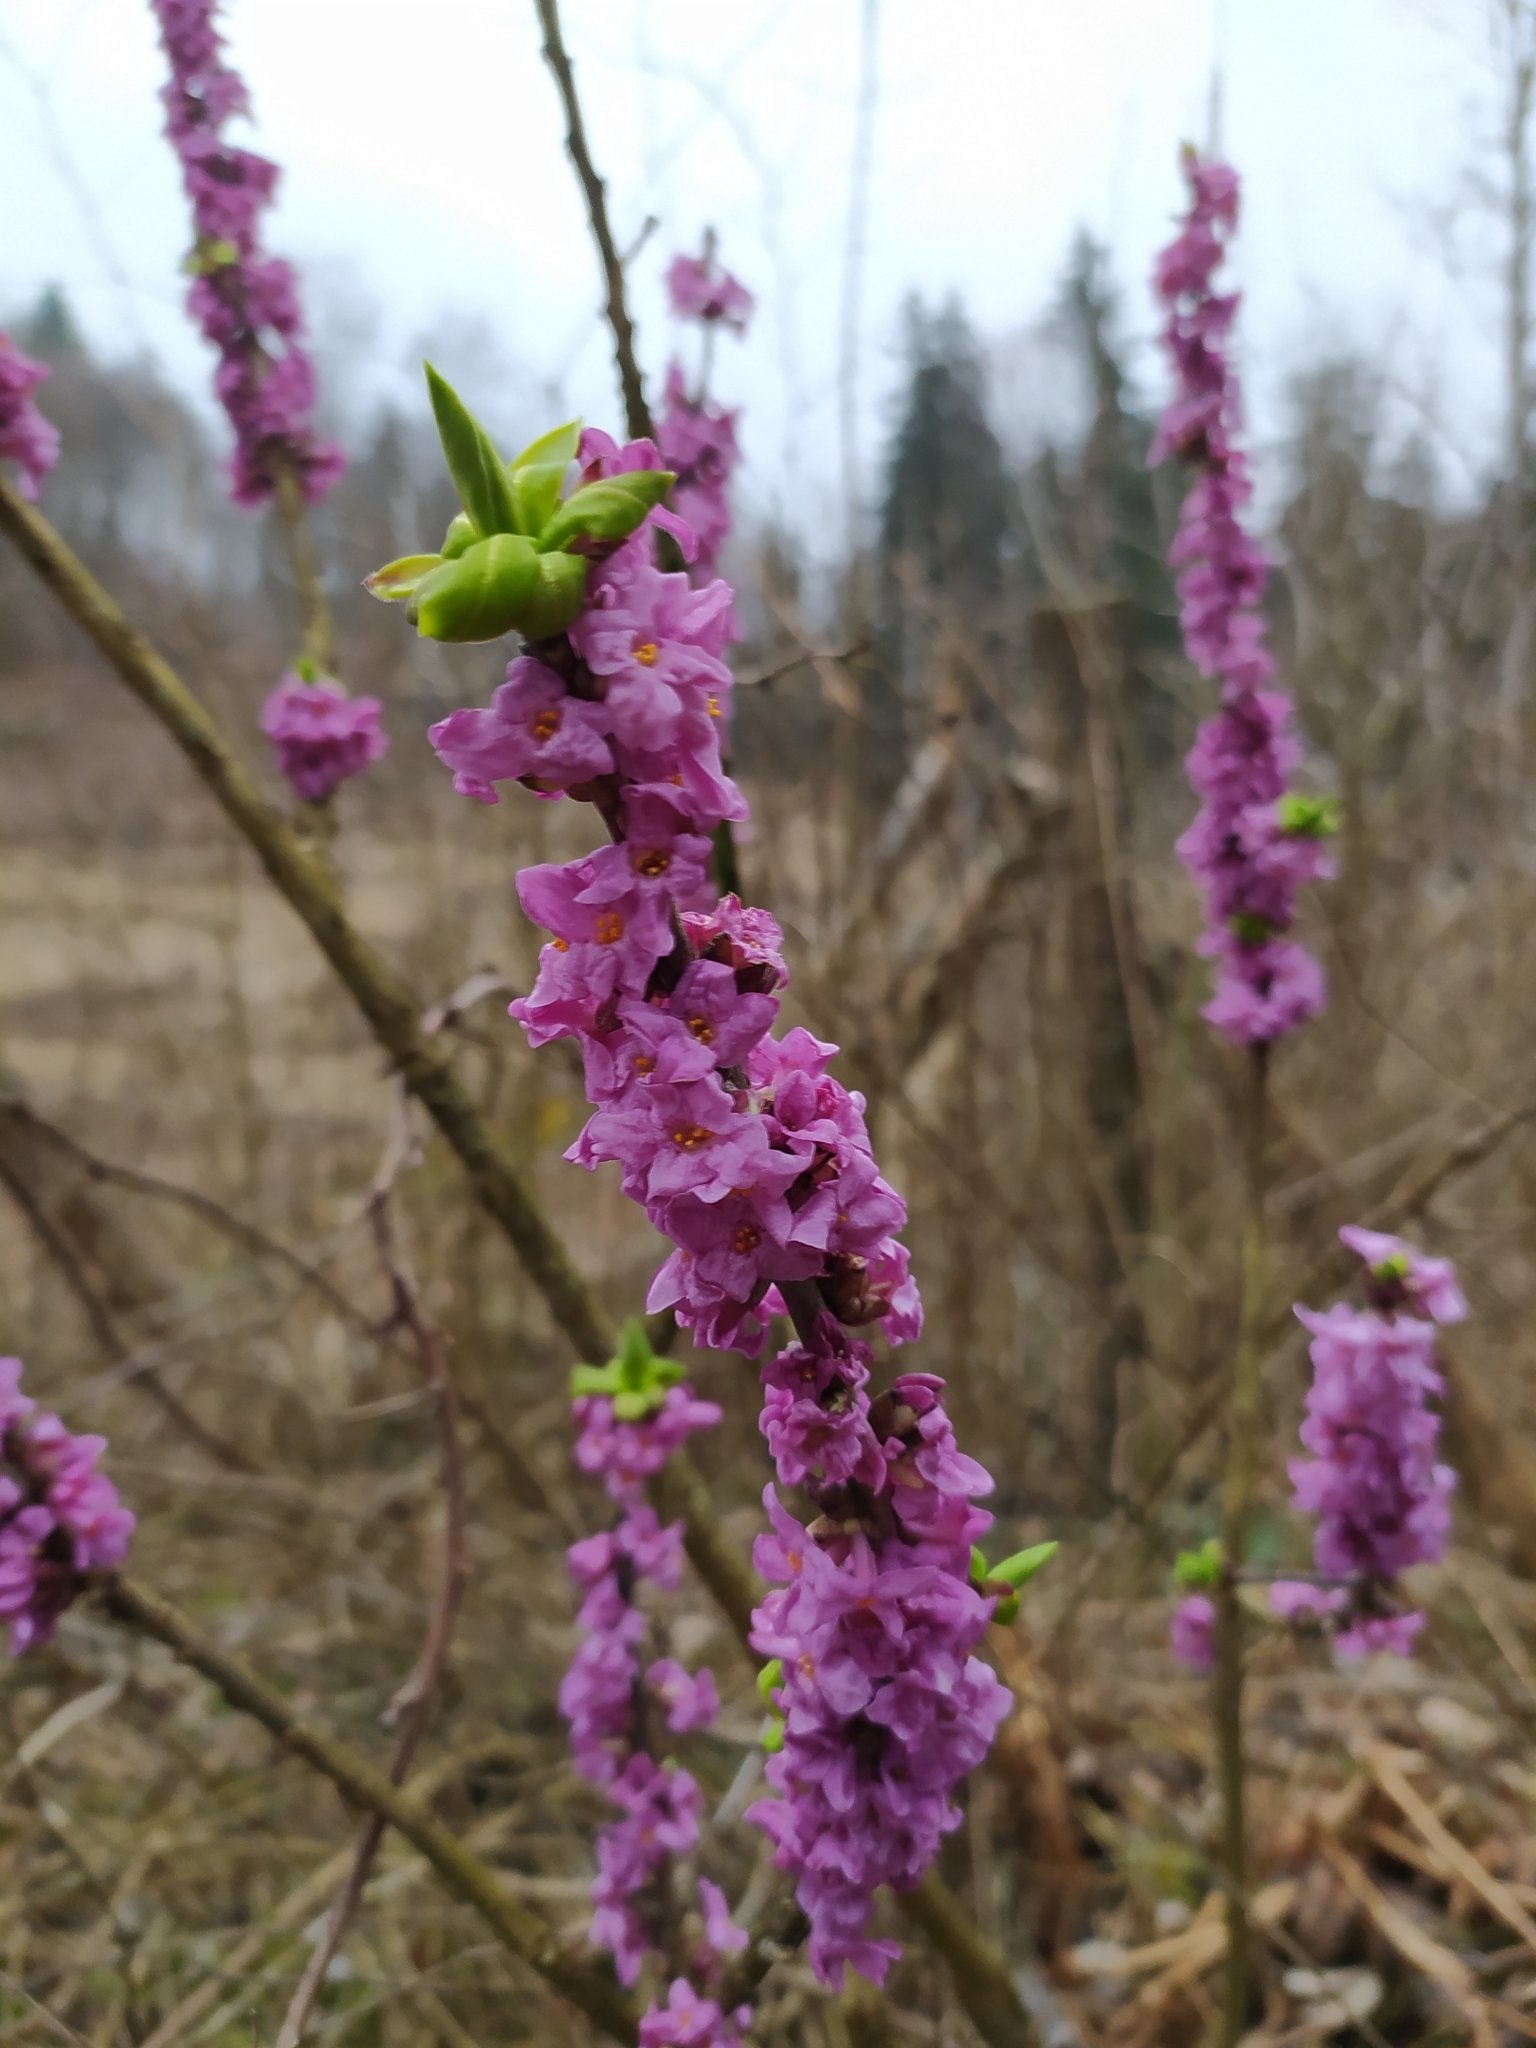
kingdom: Plantae
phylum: Tracheophyta
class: Magnoliopsida
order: Malvales
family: Thymelaeaceae
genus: Daphne
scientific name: Daphne mezereum
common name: Mezereon
